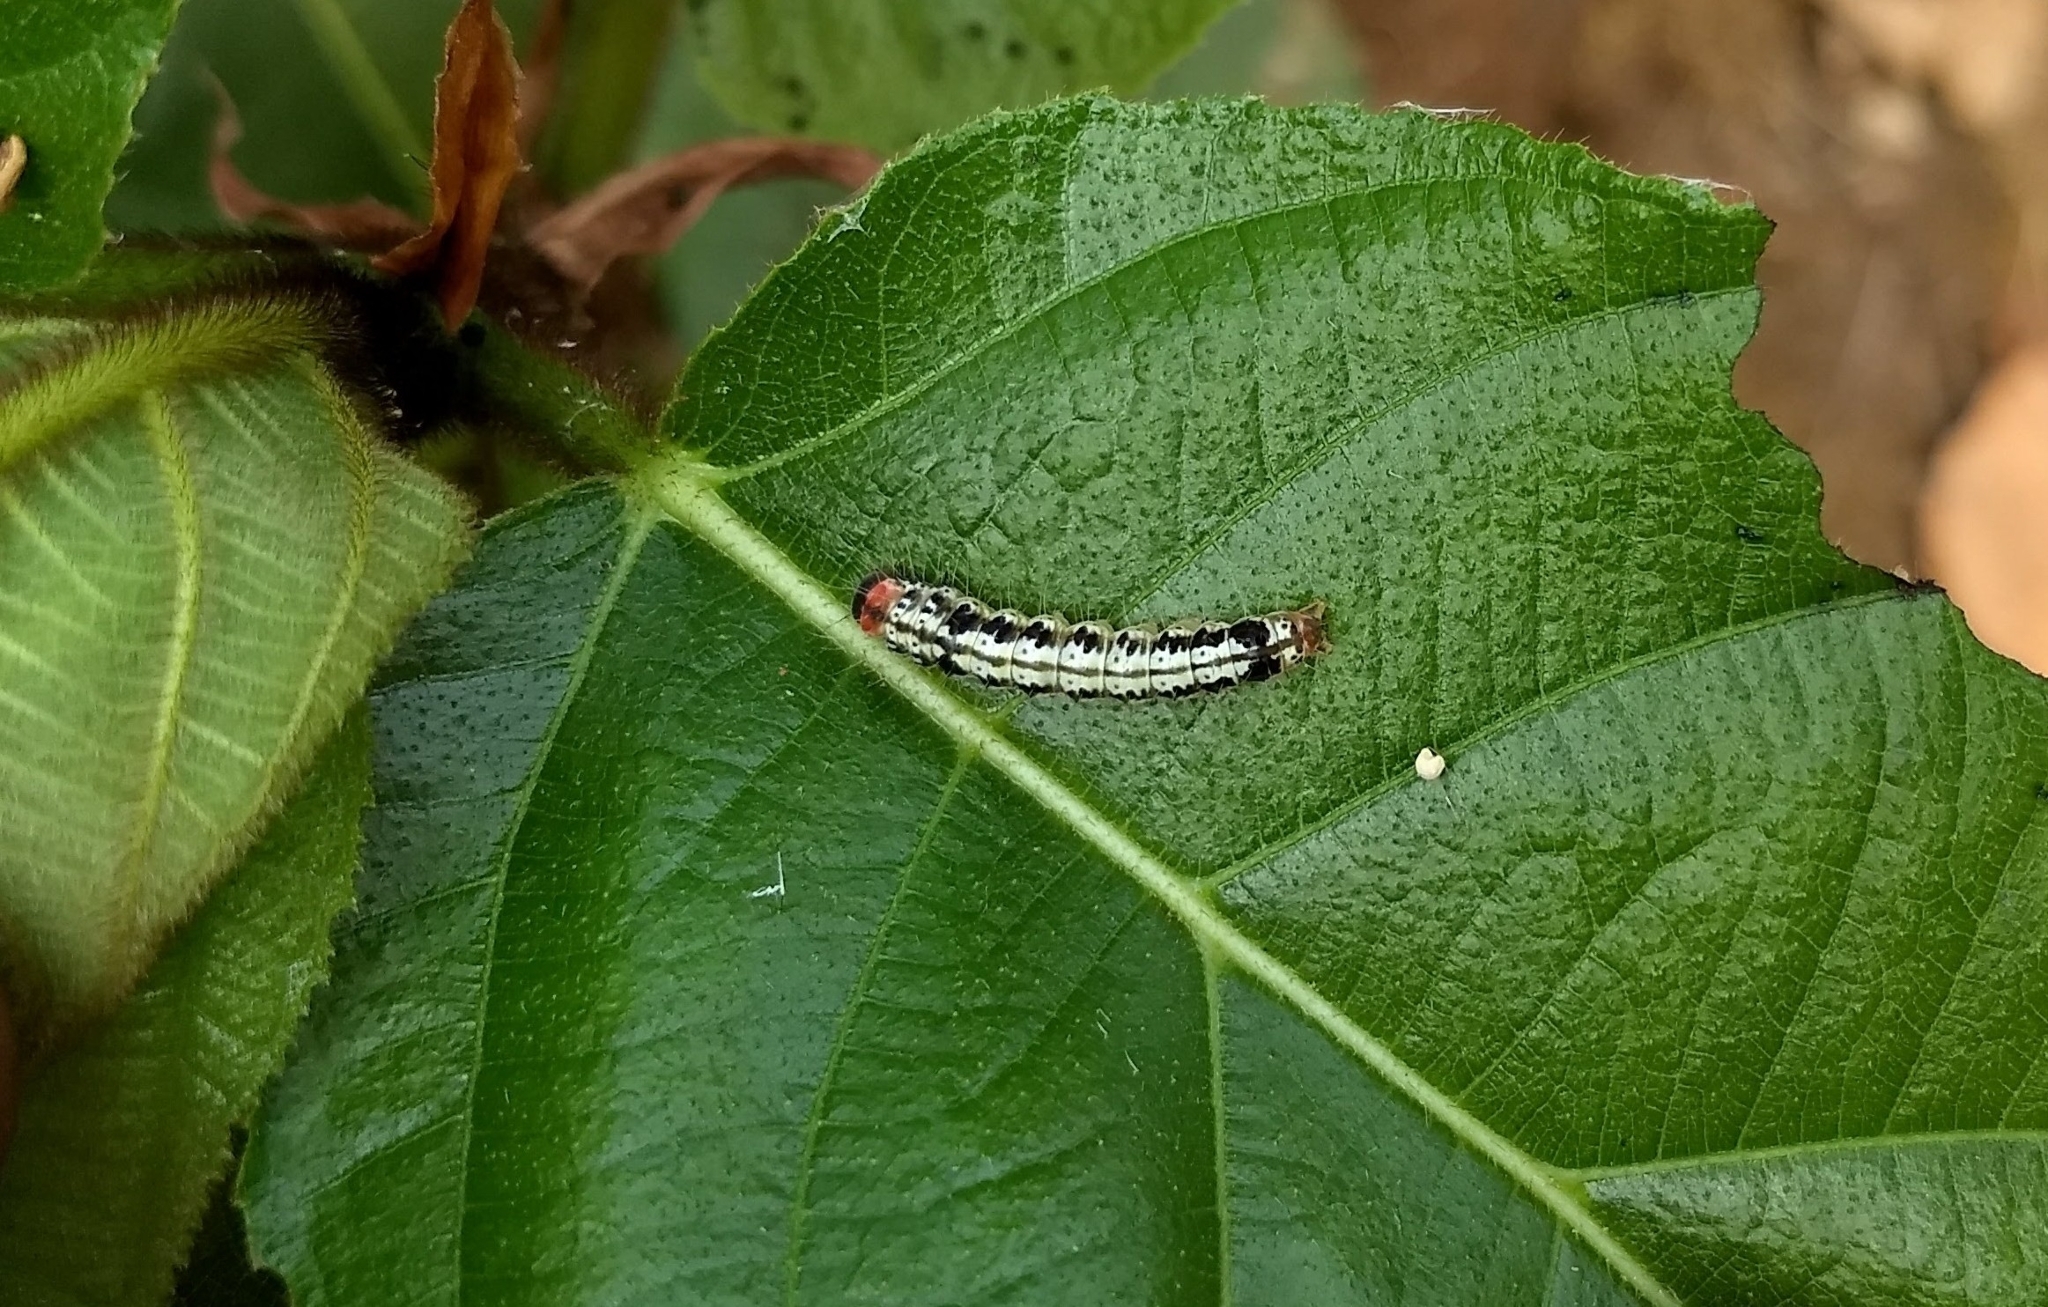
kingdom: Animalia
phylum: Arthropoda
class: Insecta
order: Lepidoptera
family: Erebidae
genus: Asota
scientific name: Asota caricae
